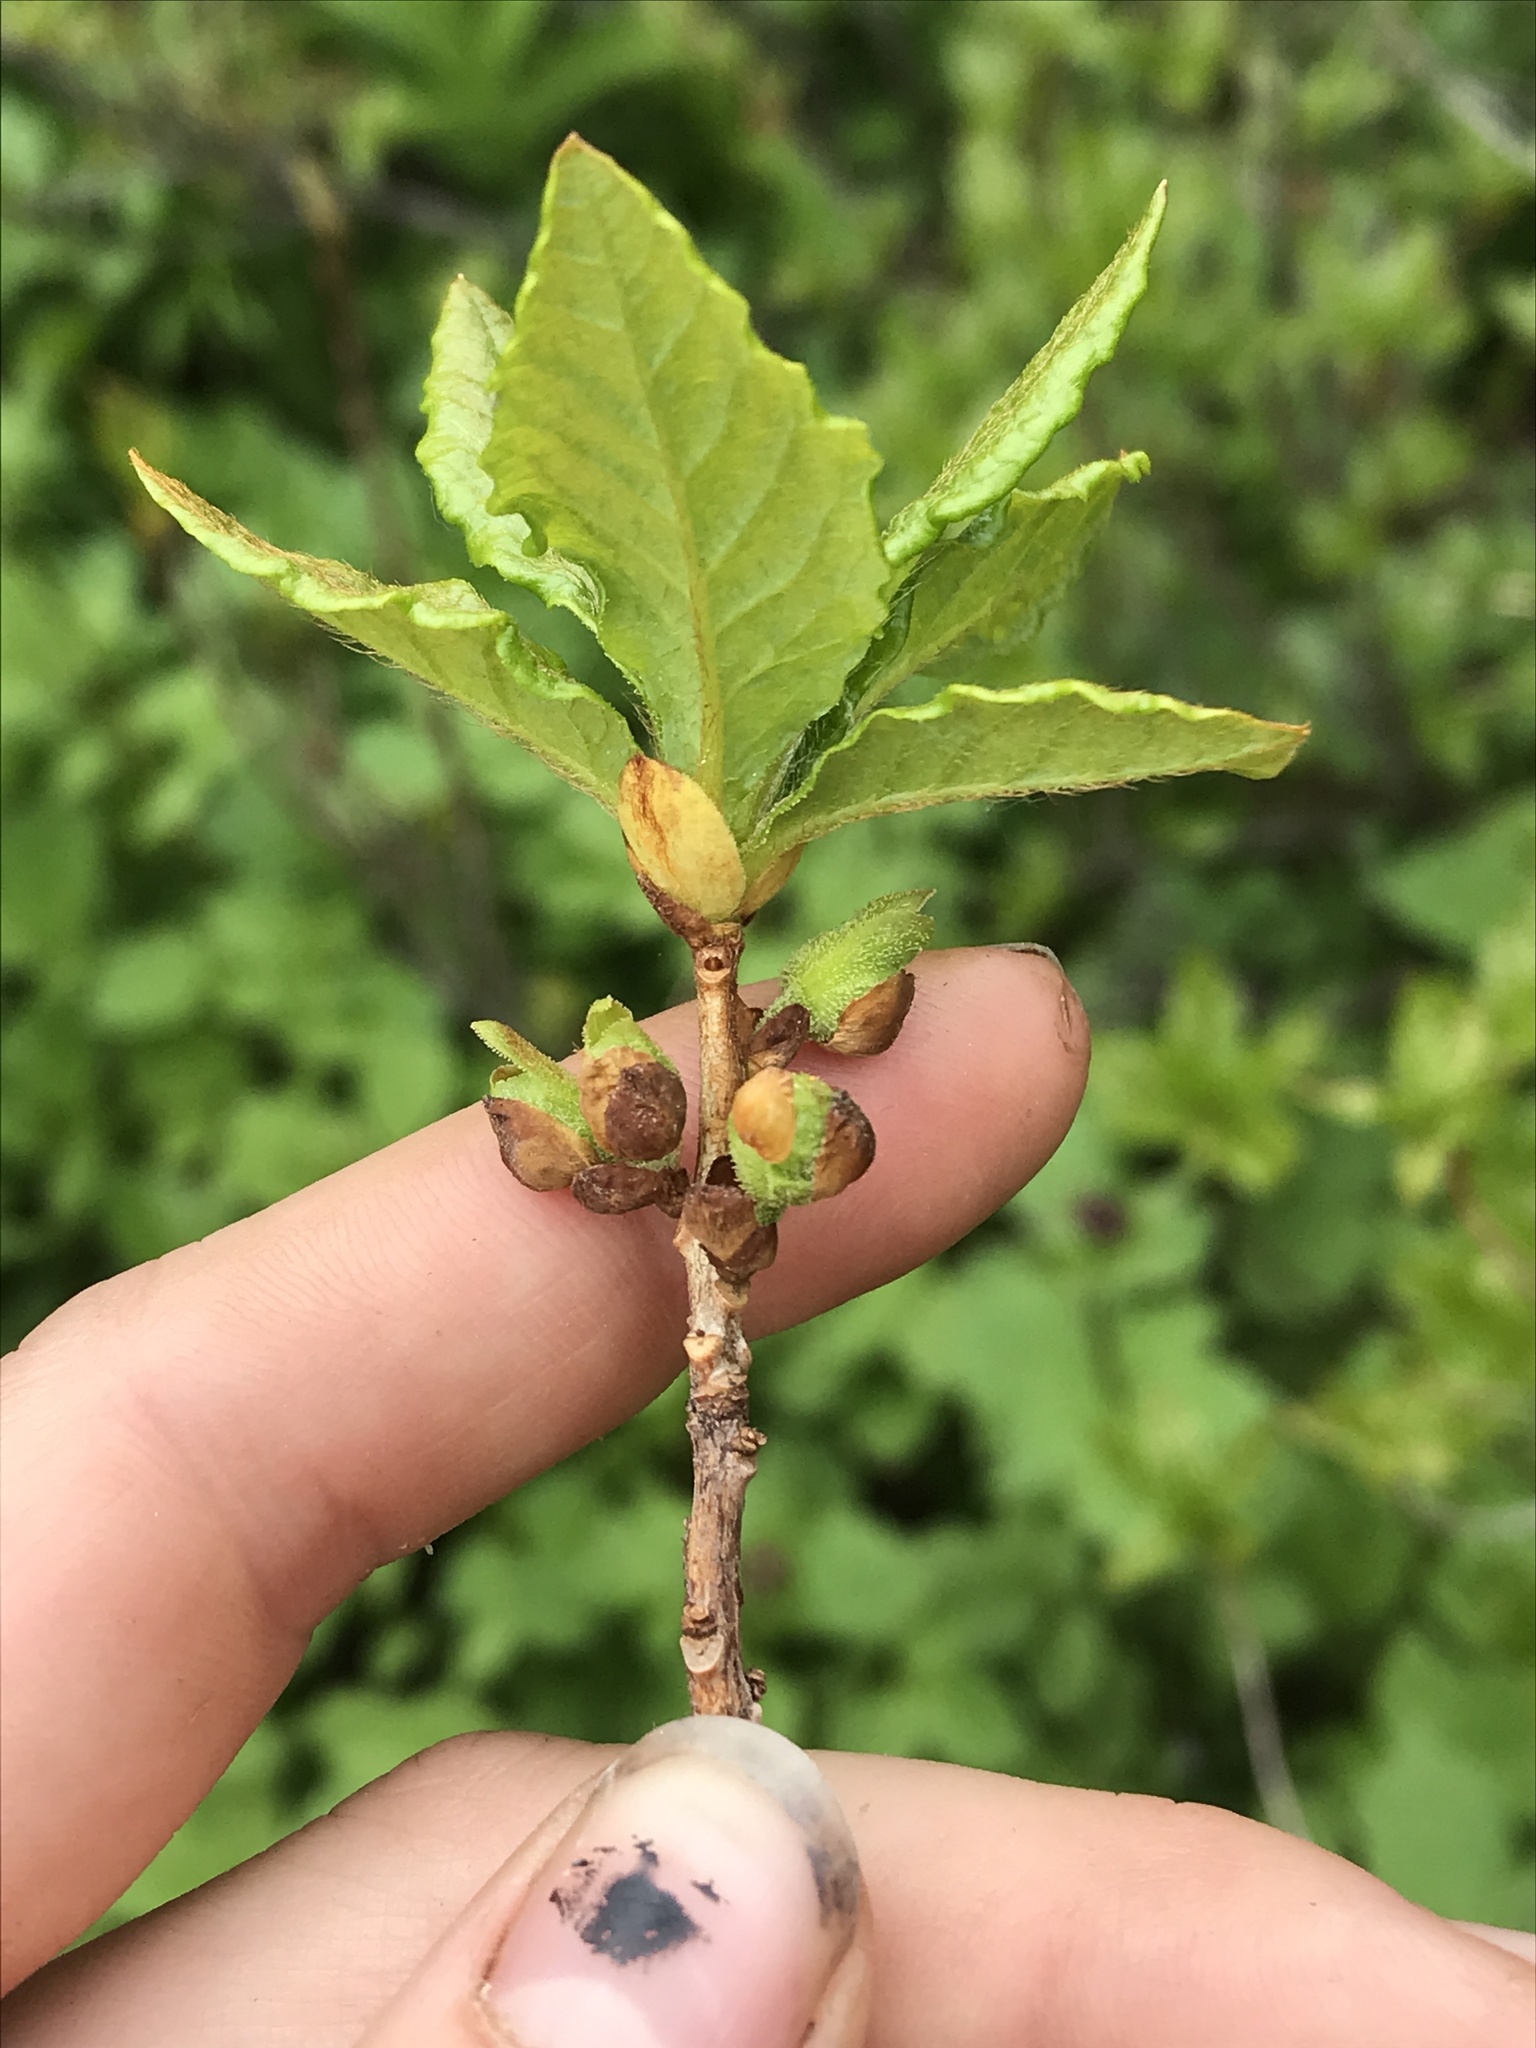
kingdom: Plantae
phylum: Tracheophyta
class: Magnoliopsida
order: Ericales
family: Ericaceae
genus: Rhododendron
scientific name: Rhododendron albiflorum
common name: White rhododendron
